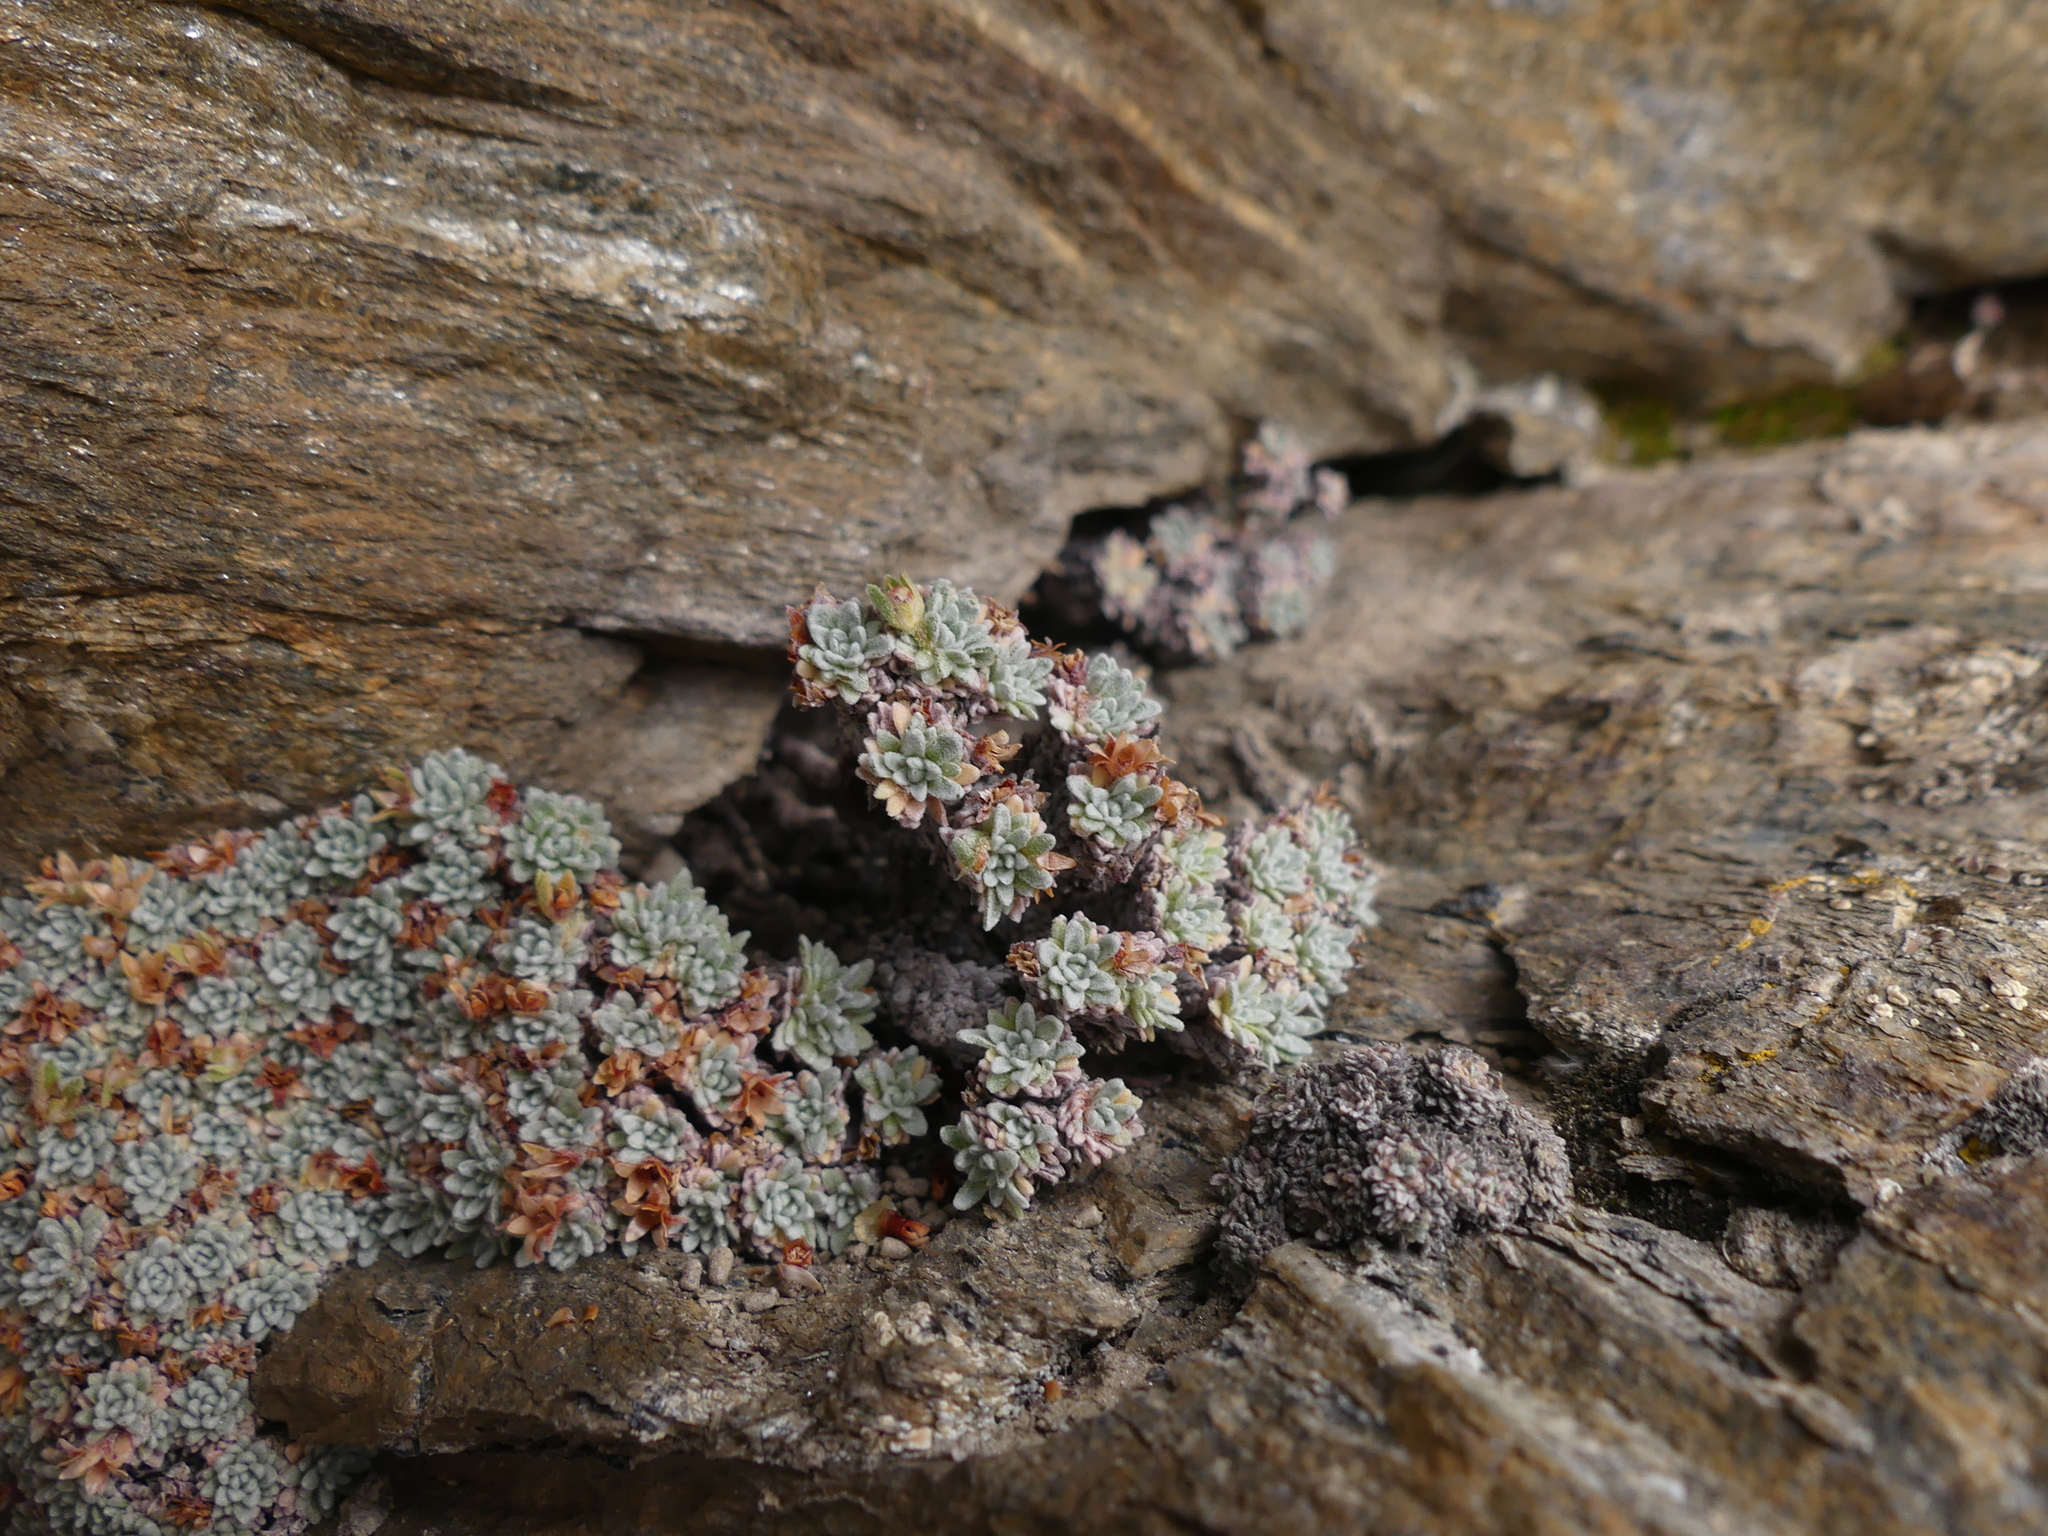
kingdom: Plantae
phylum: Tracheophyta
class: Magnoliopsida
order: Ericales
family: Primulaceae
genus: Androsace
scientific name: Androsace argentea
